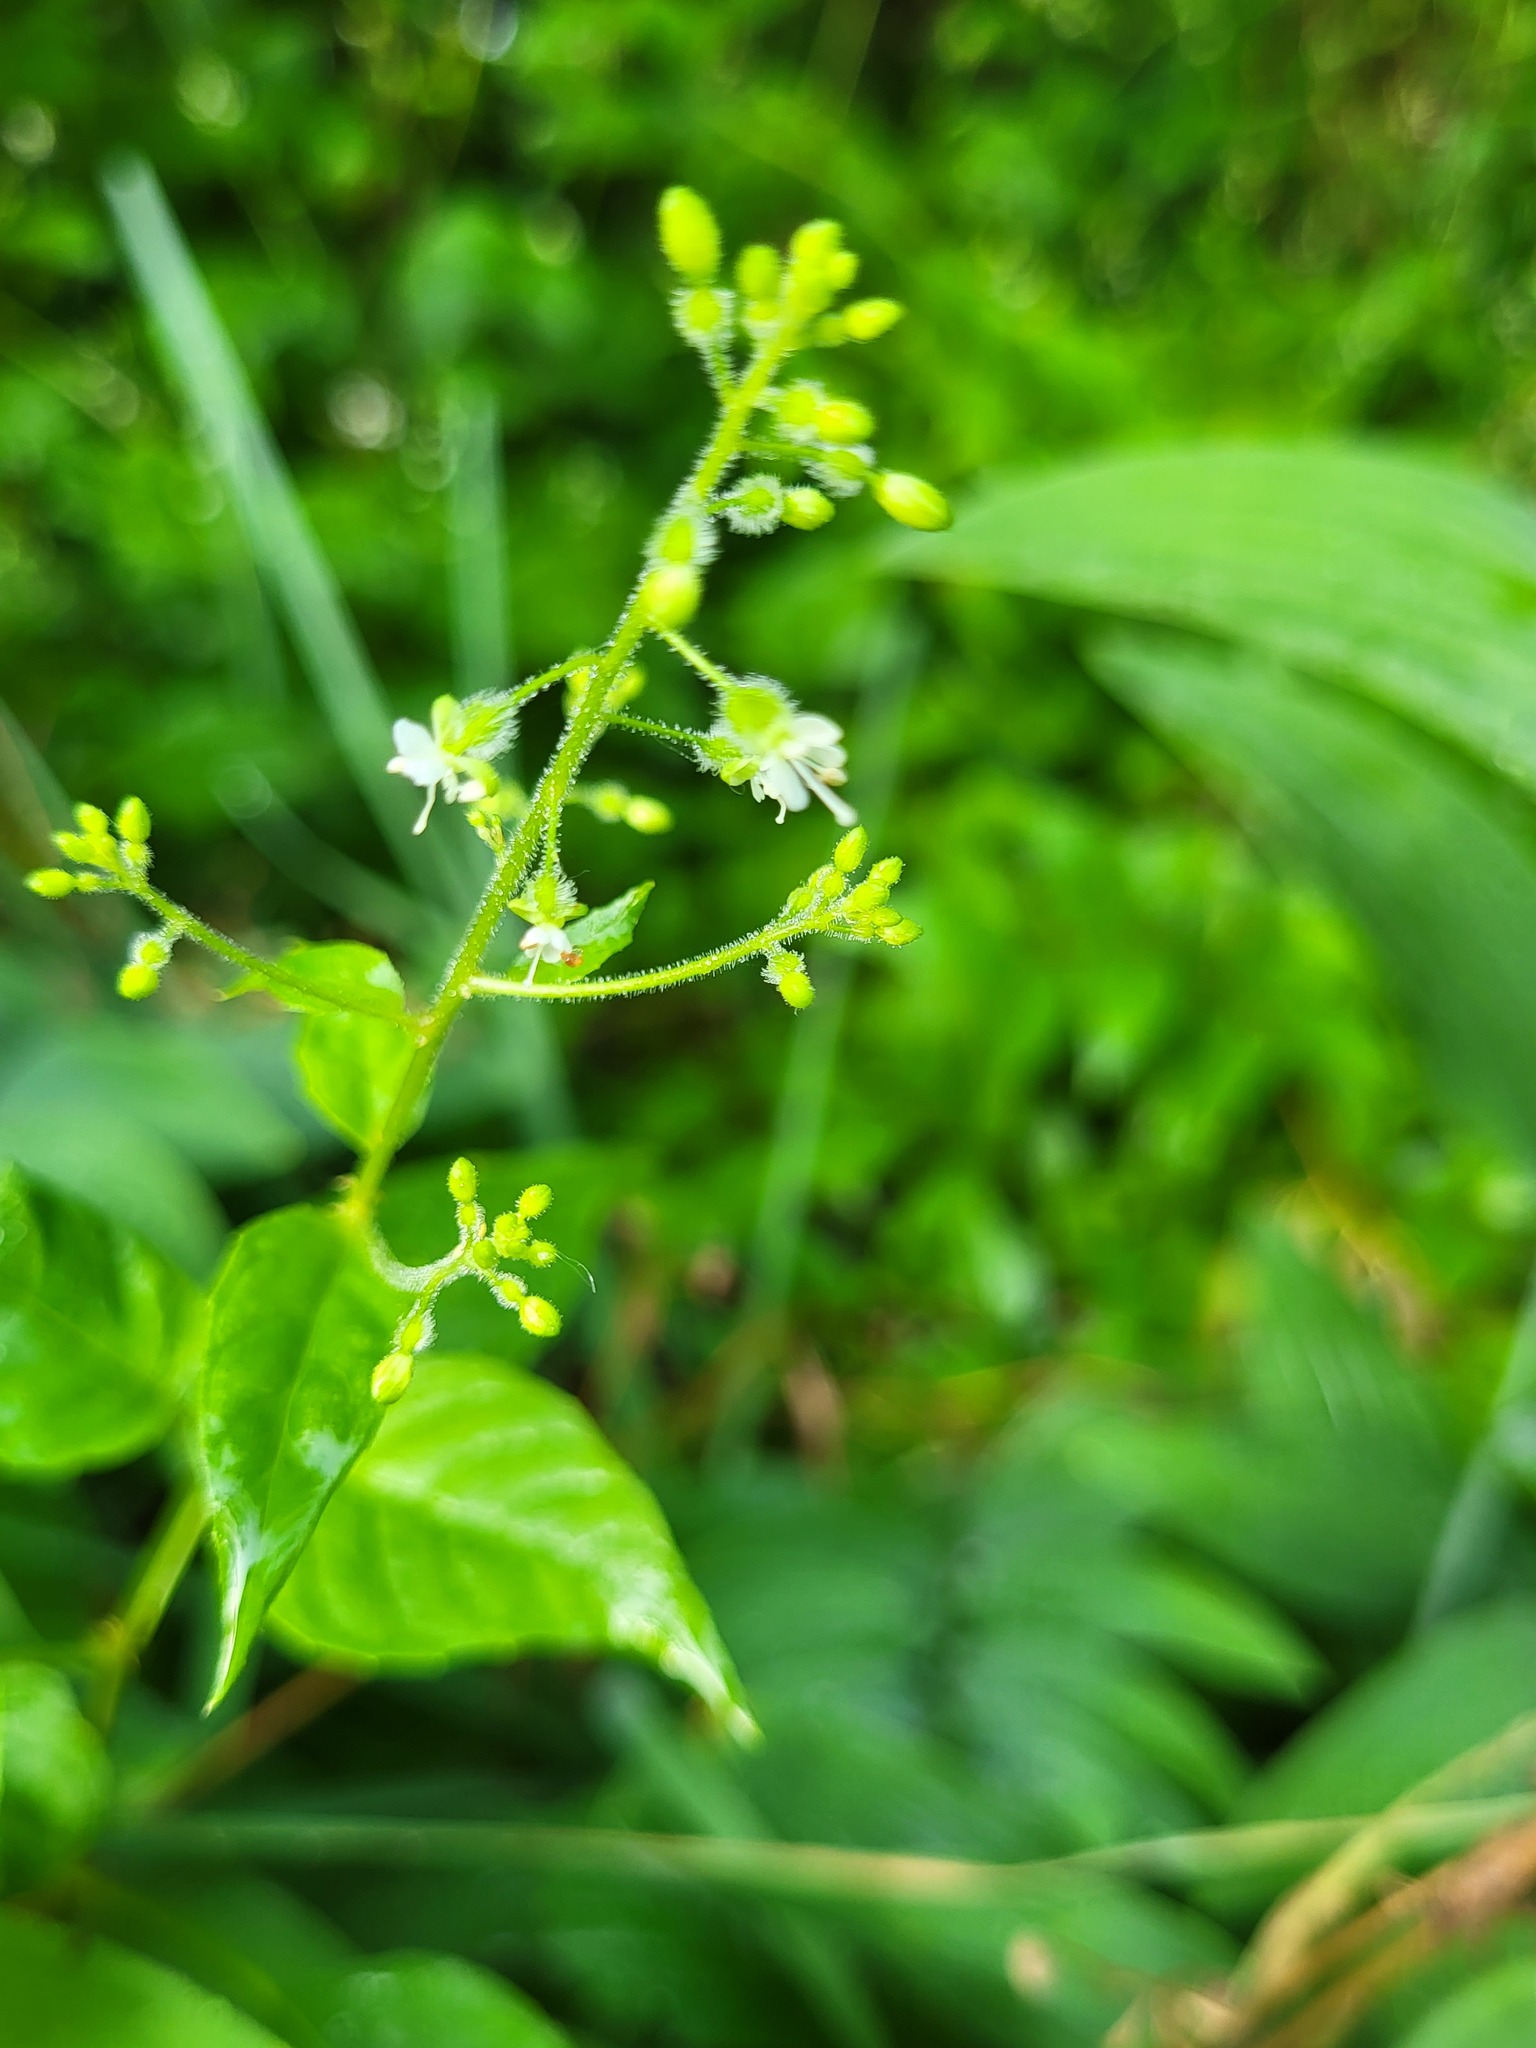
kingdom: Plantae
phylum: Tracheophyta
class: Magnoliopsida
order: Myrtales
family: Onagraceae
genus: Circaea
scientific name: Circaea canadensis
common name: Broad-leaved enchanter's nightshade
